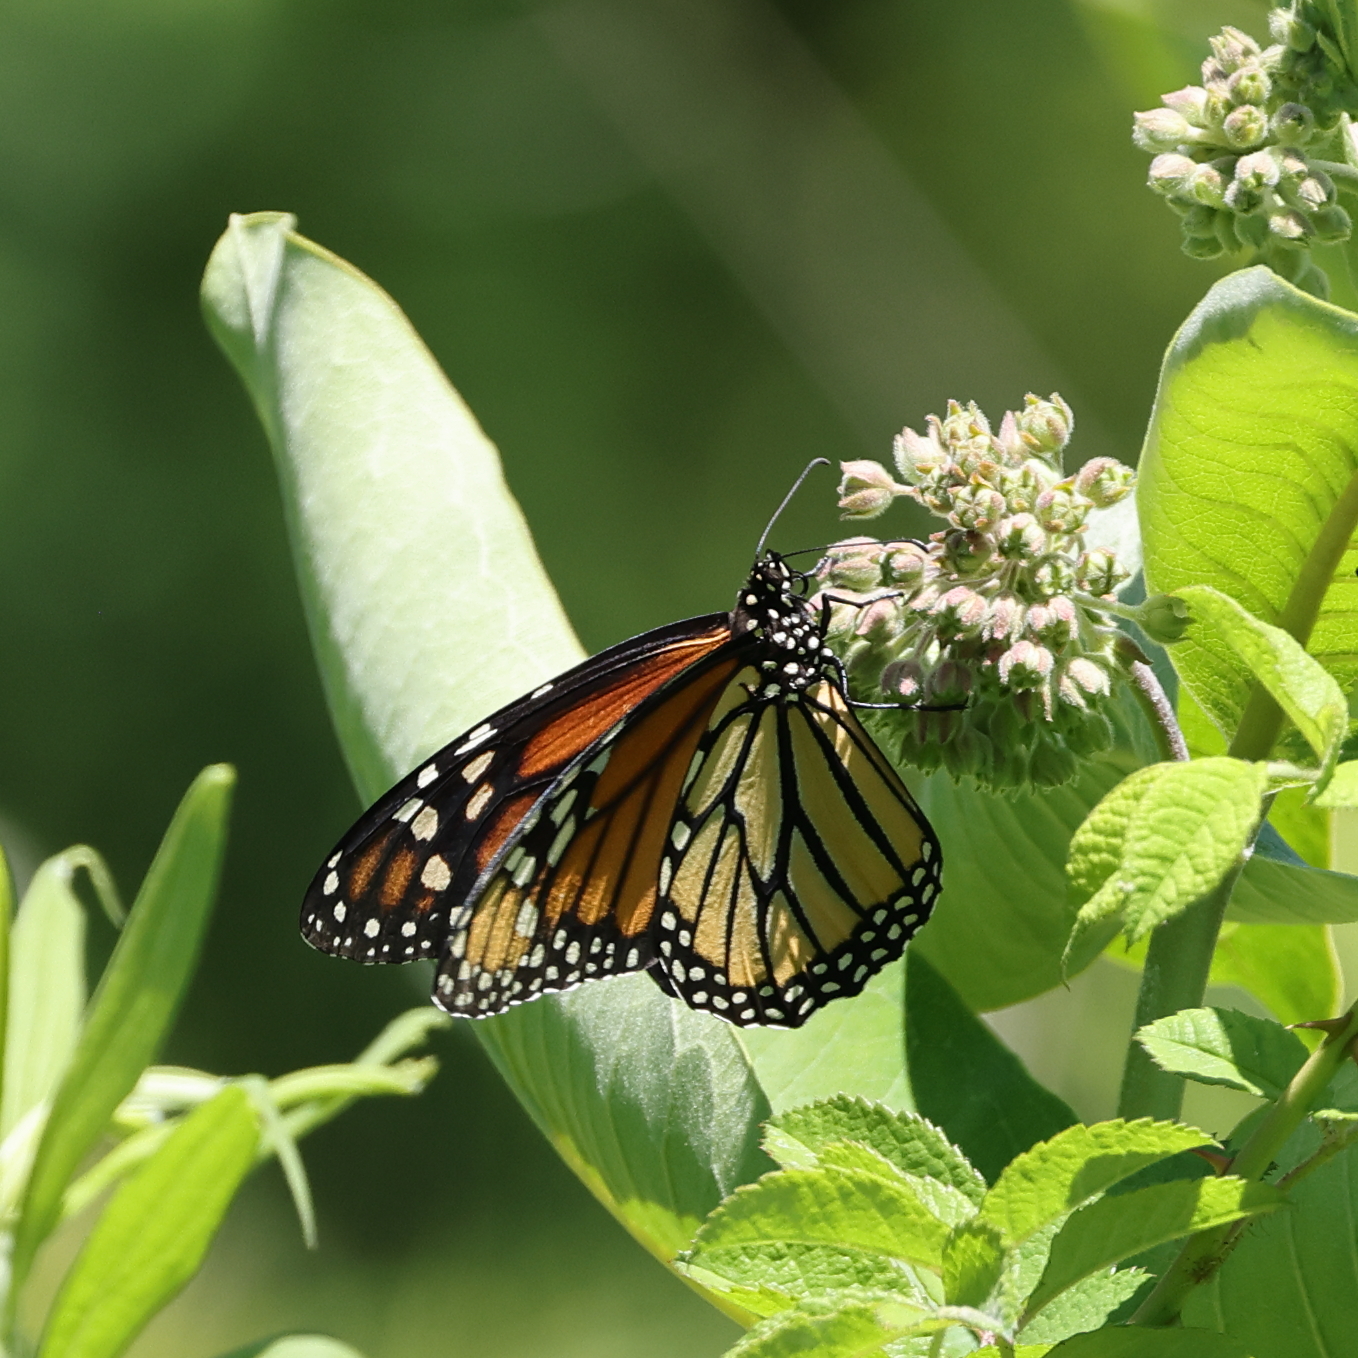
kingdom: Animalia
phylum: Arthropoda
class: Insecta
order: Lepidoptera
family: Nymphalidae
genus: Danaus
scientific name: Danaus plexippus
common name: Monarch
